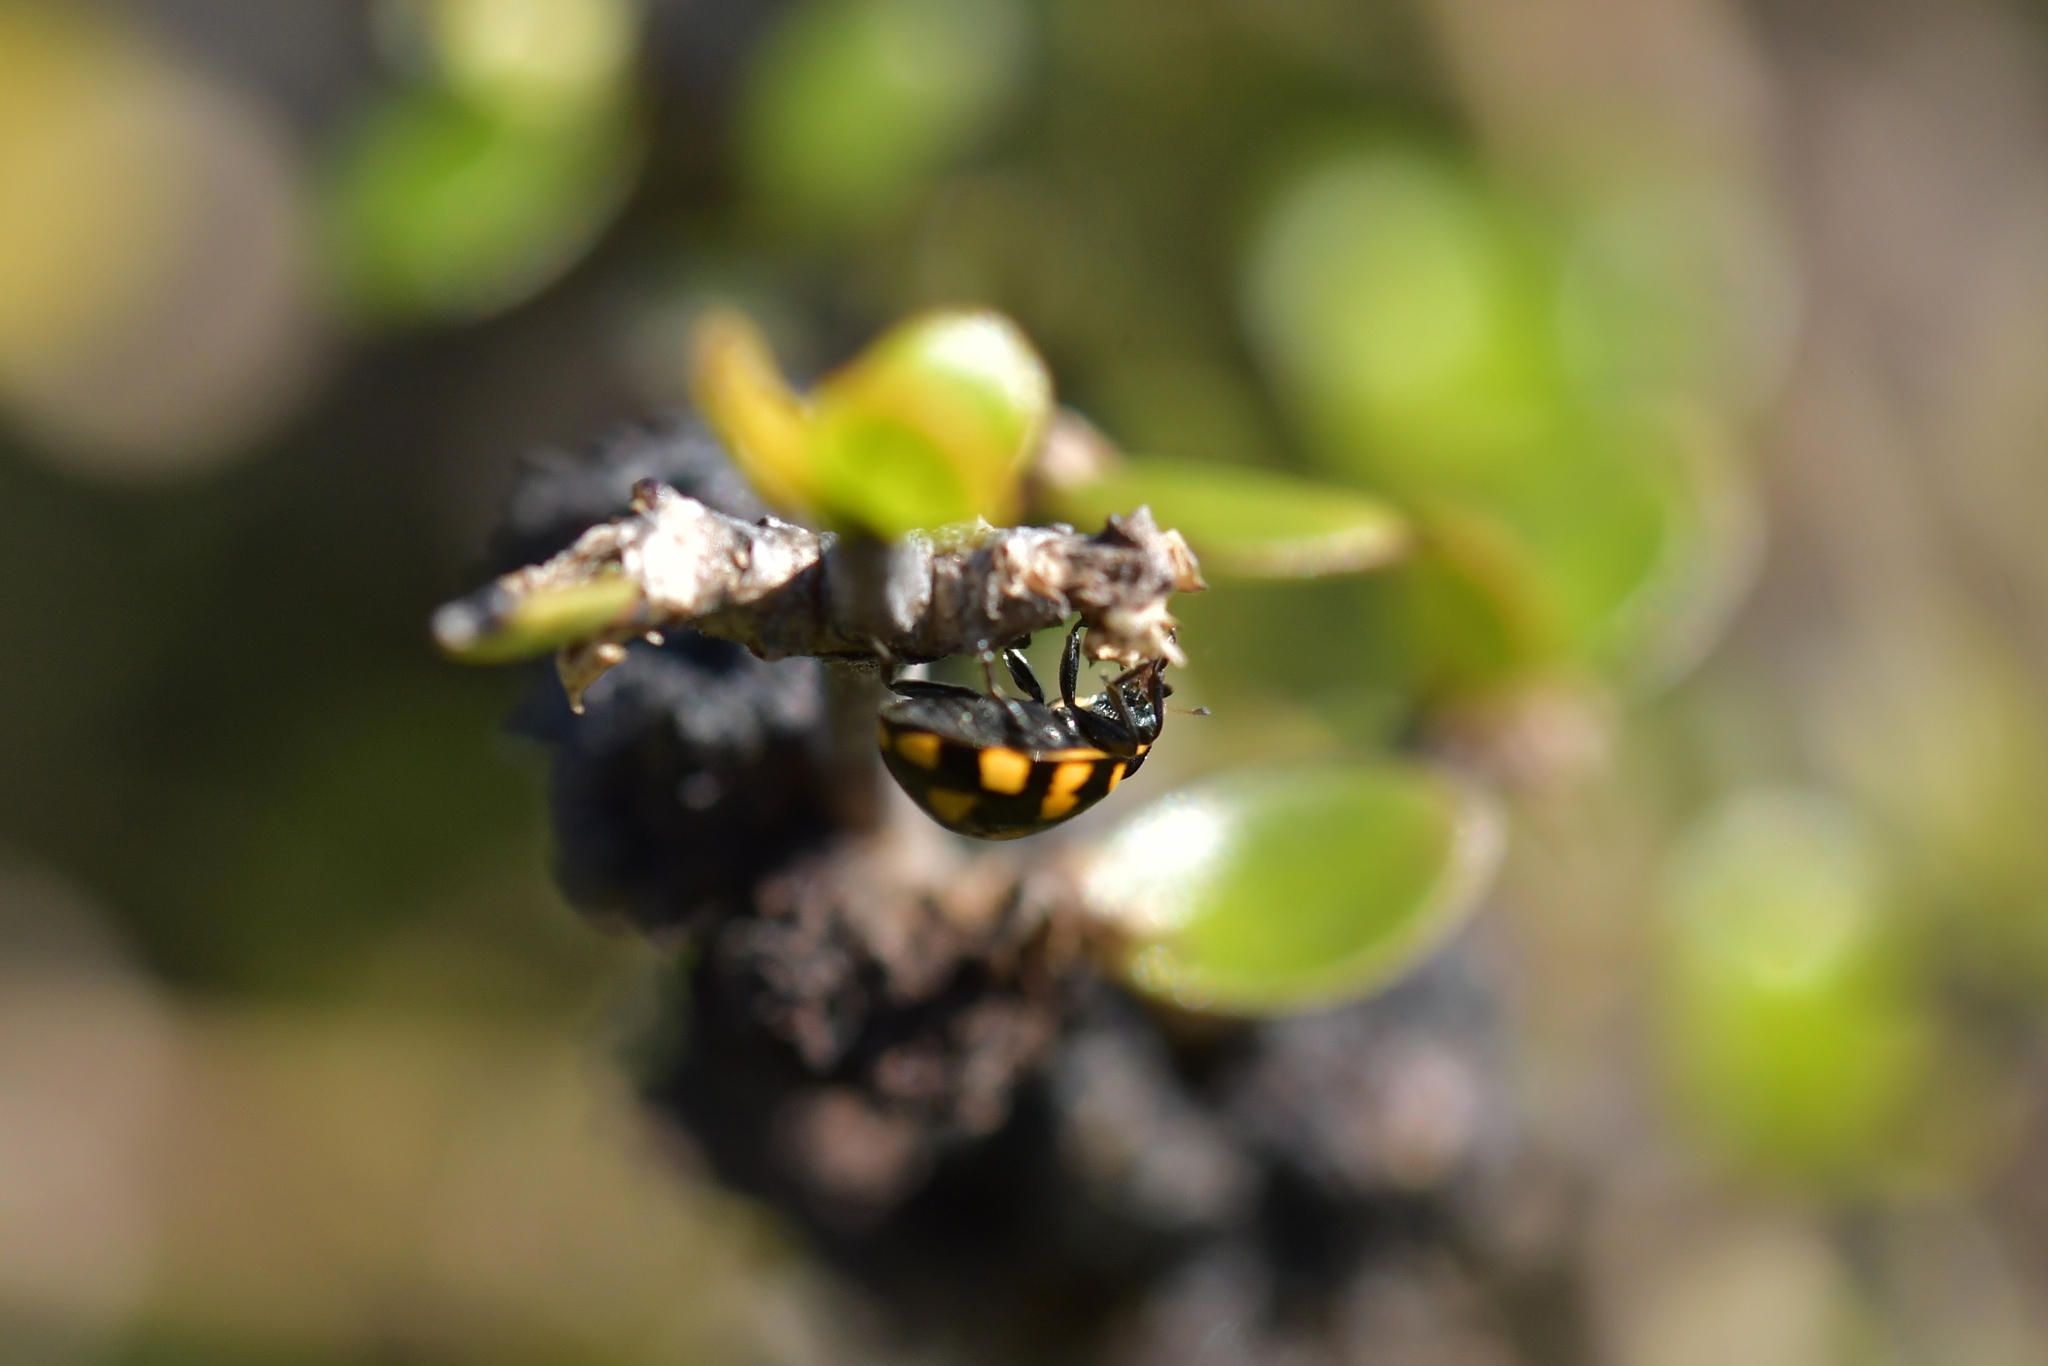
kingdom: Animalia
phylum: Arthropoda
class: Insecta
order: Coleoptera
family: Coccinellidae
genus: Coccinella
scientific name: Coccinella leonina
